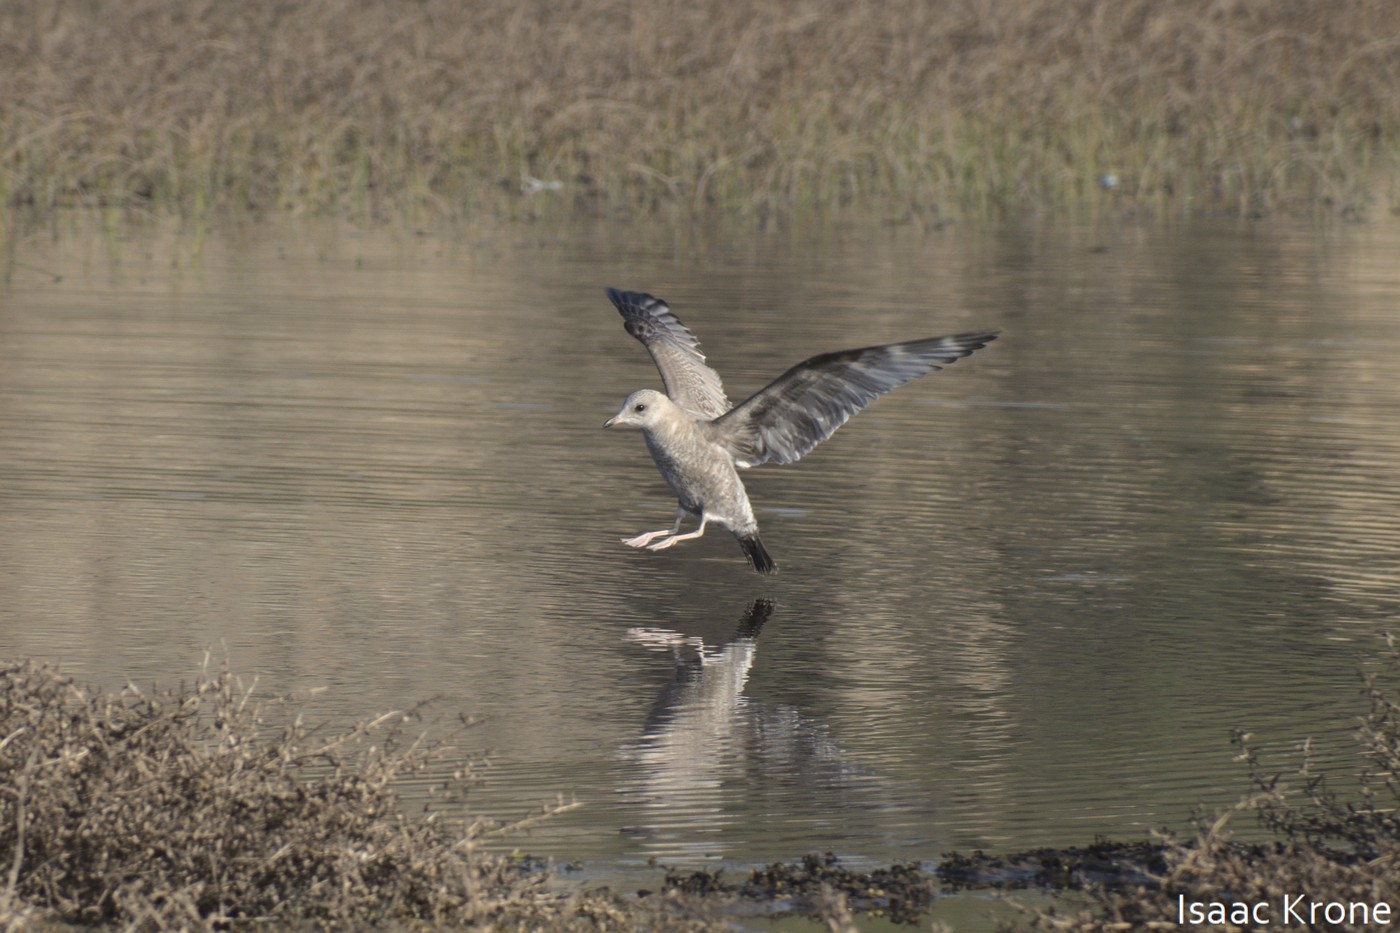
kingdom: Animalia
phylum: Chordata
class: Aves
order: Charadriiformes
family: Laridae
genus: Larus
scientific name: Larus brachyrhynchus
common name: Short-billed gull
